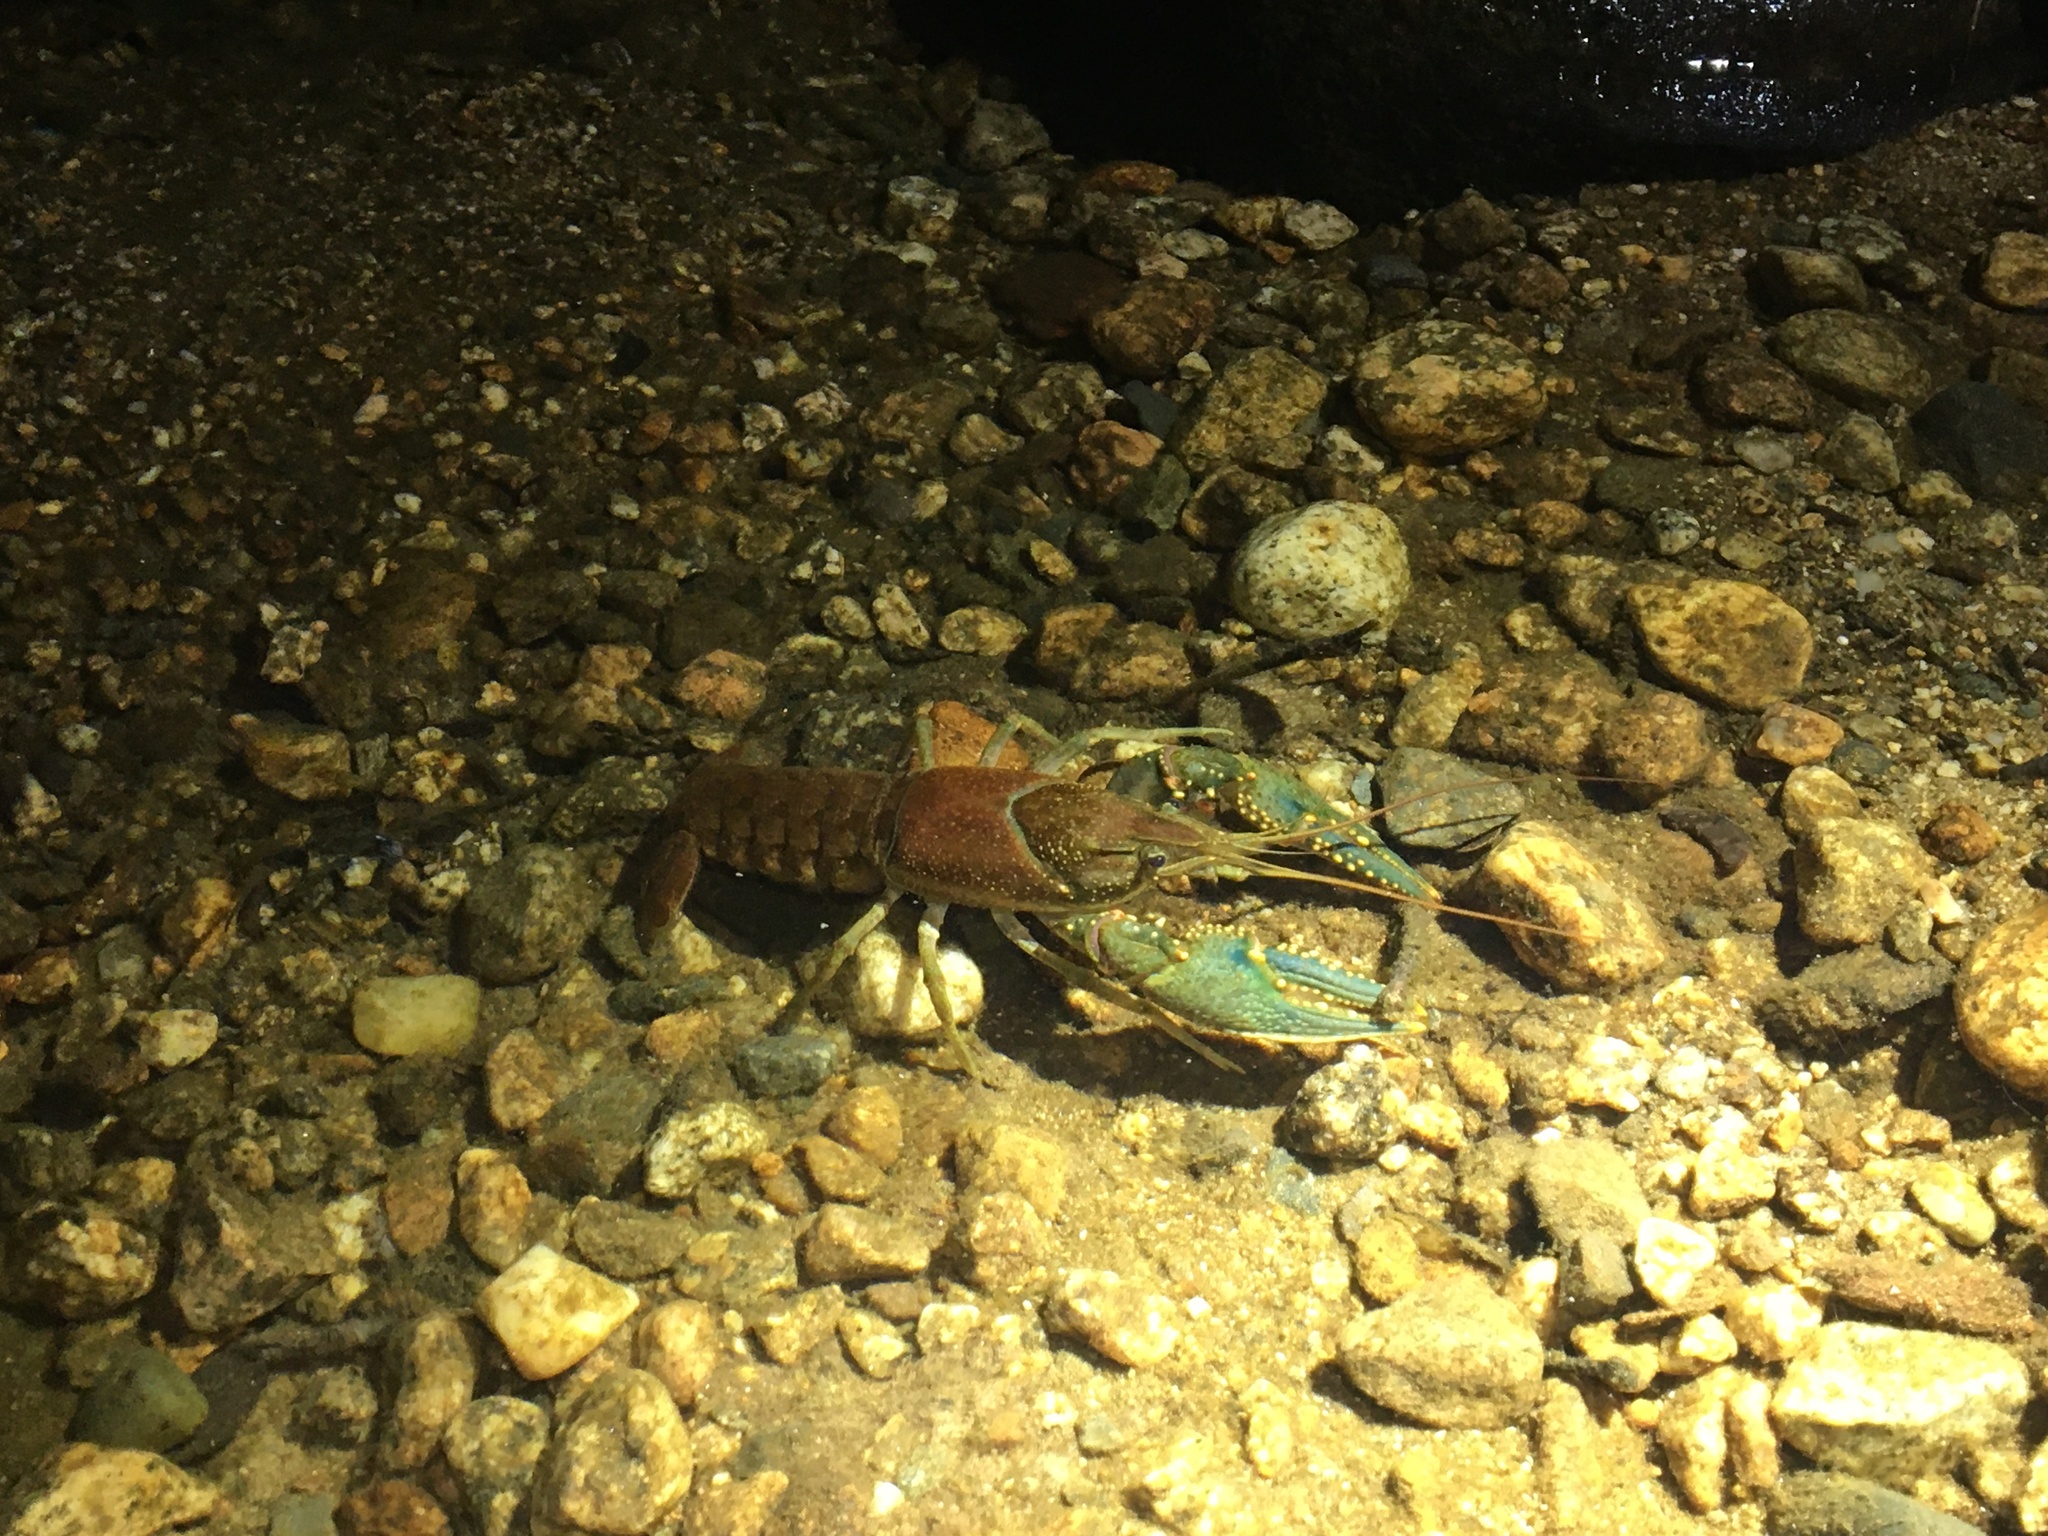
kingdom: Animalia
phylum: Arthropoda
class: Malacostraca
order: Decapoda
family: Cambaridae
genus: Faxonius
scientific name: Faxonius virilis
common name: Virile crayfish
